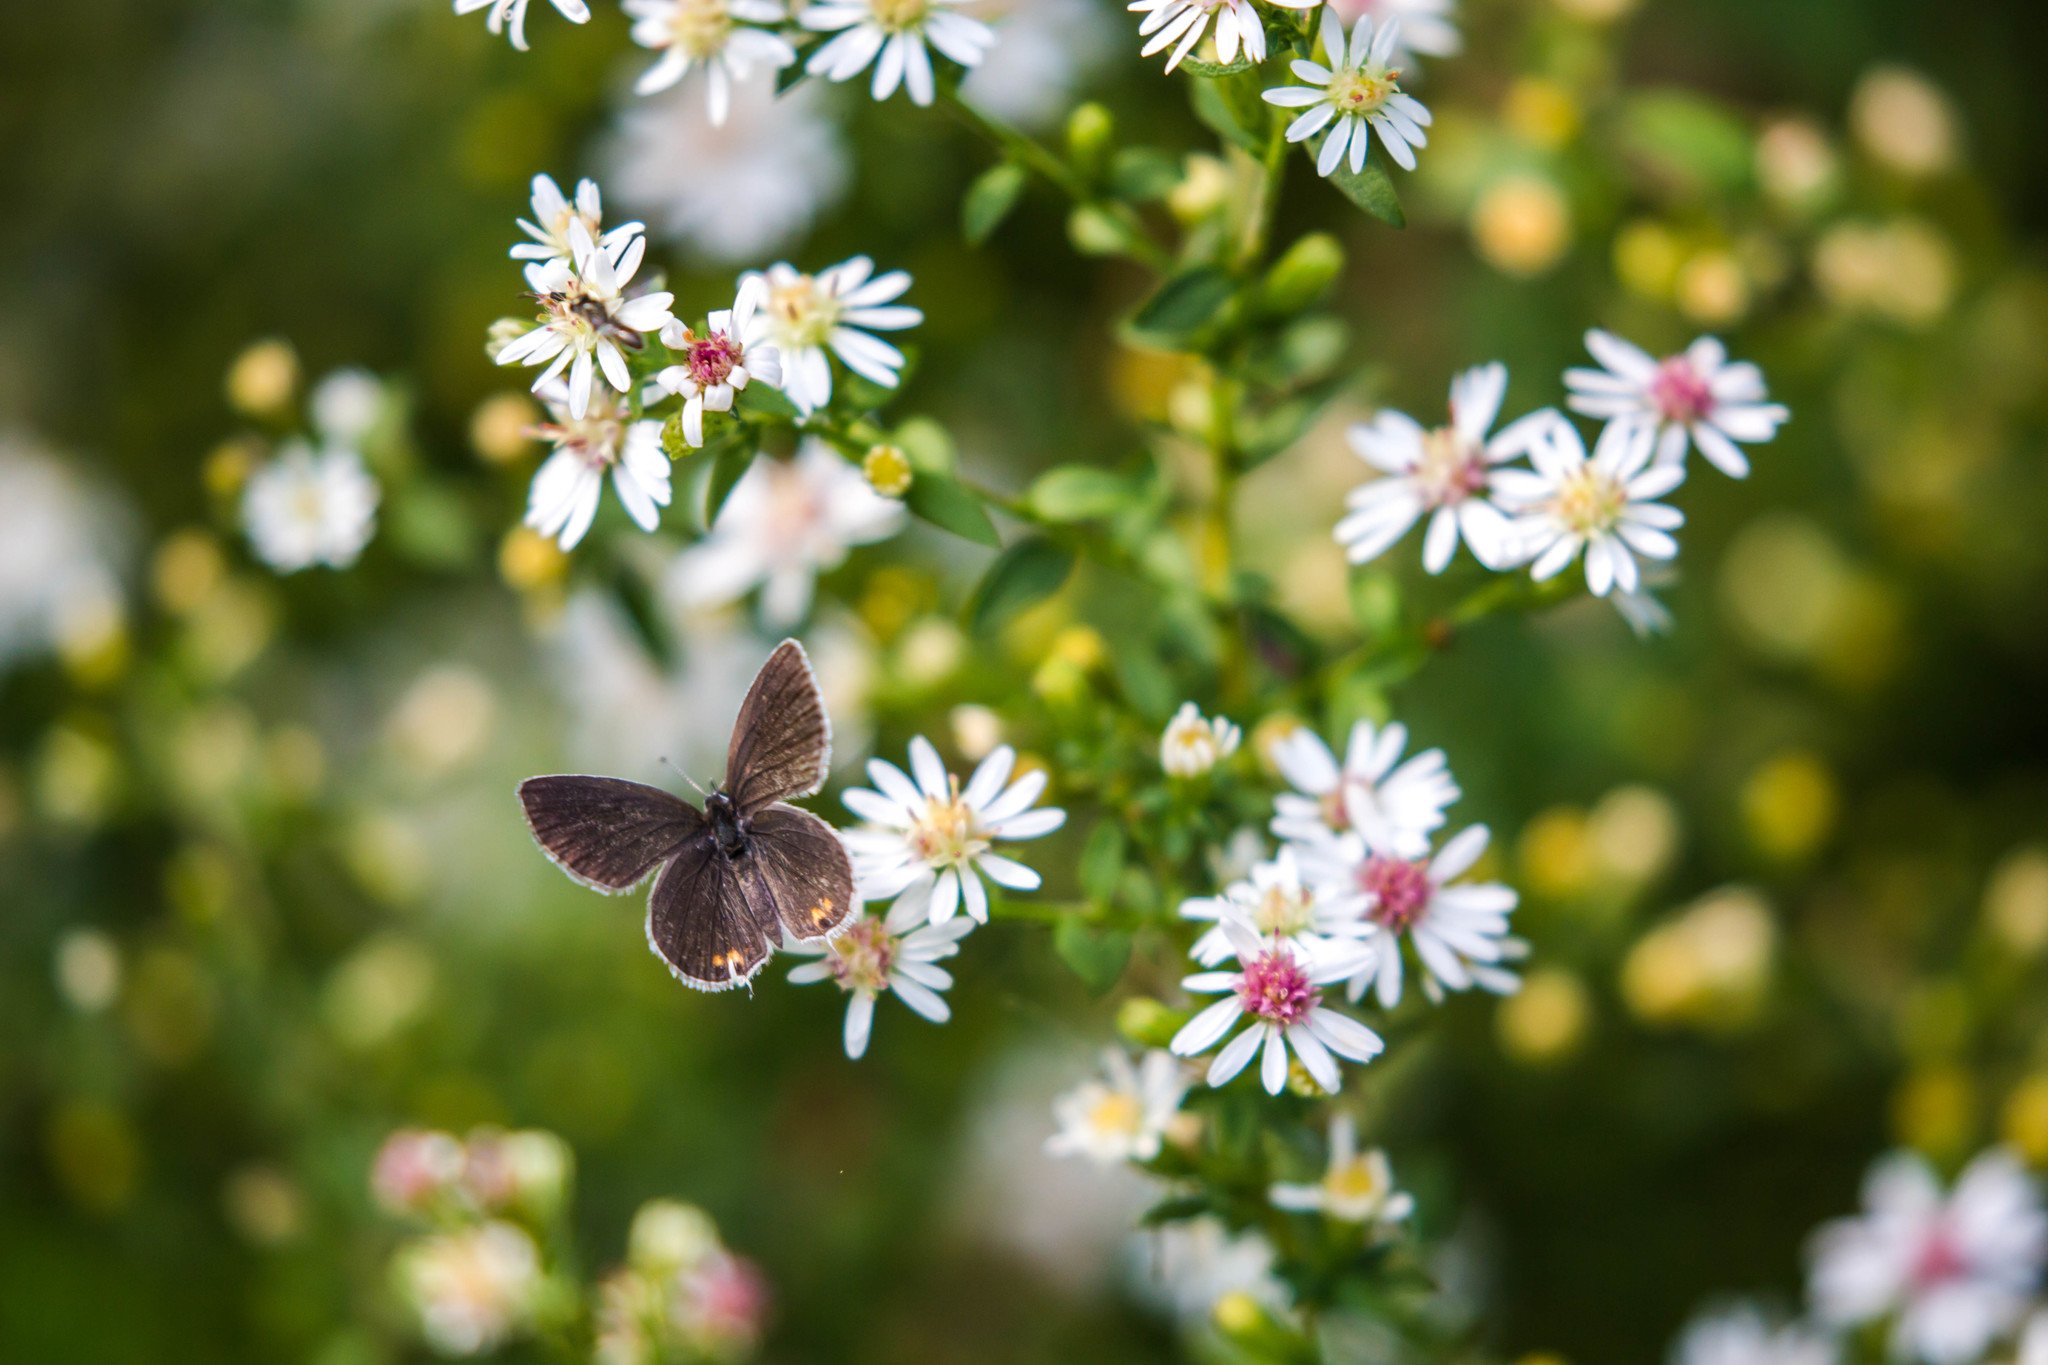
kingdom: Animalia
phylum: Arthropoda
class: Insecta
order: Lepidoptera
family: Lycaenidae
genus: Elkalyce
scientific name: Elkalyce comyntas
